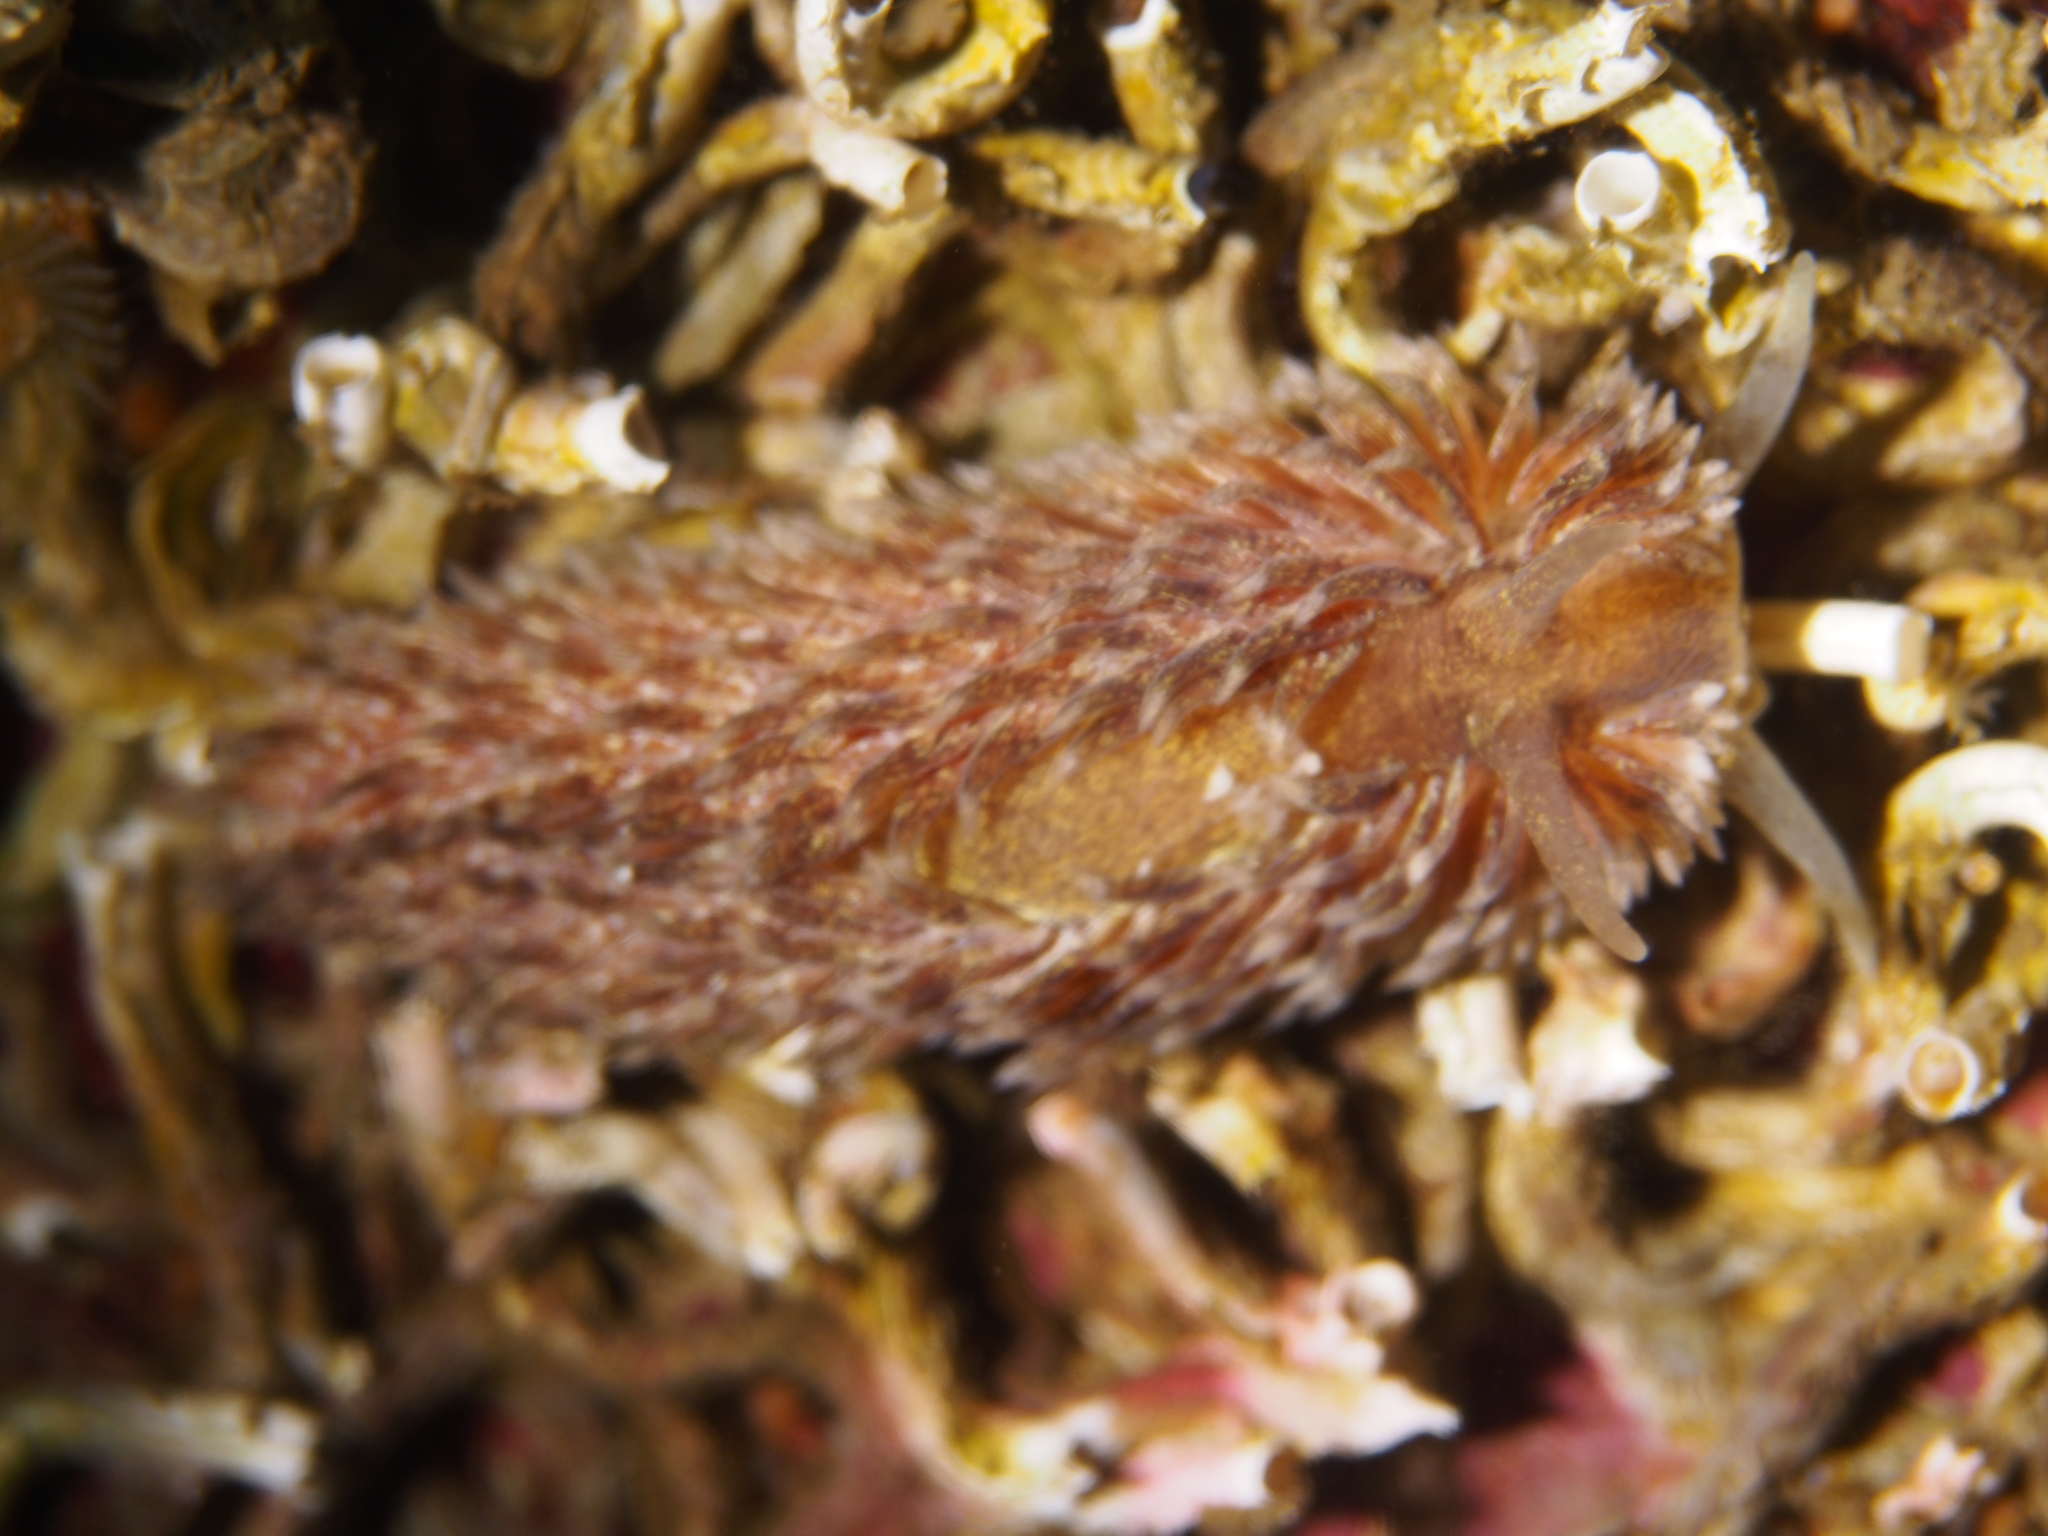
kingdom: Animalia
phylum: Mollusca
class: Gastropoda
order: Nudibranchia
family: Aeolidiidae
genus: Aeolidia
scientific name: Aeolidia papillosa
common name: Common grey sea slug
